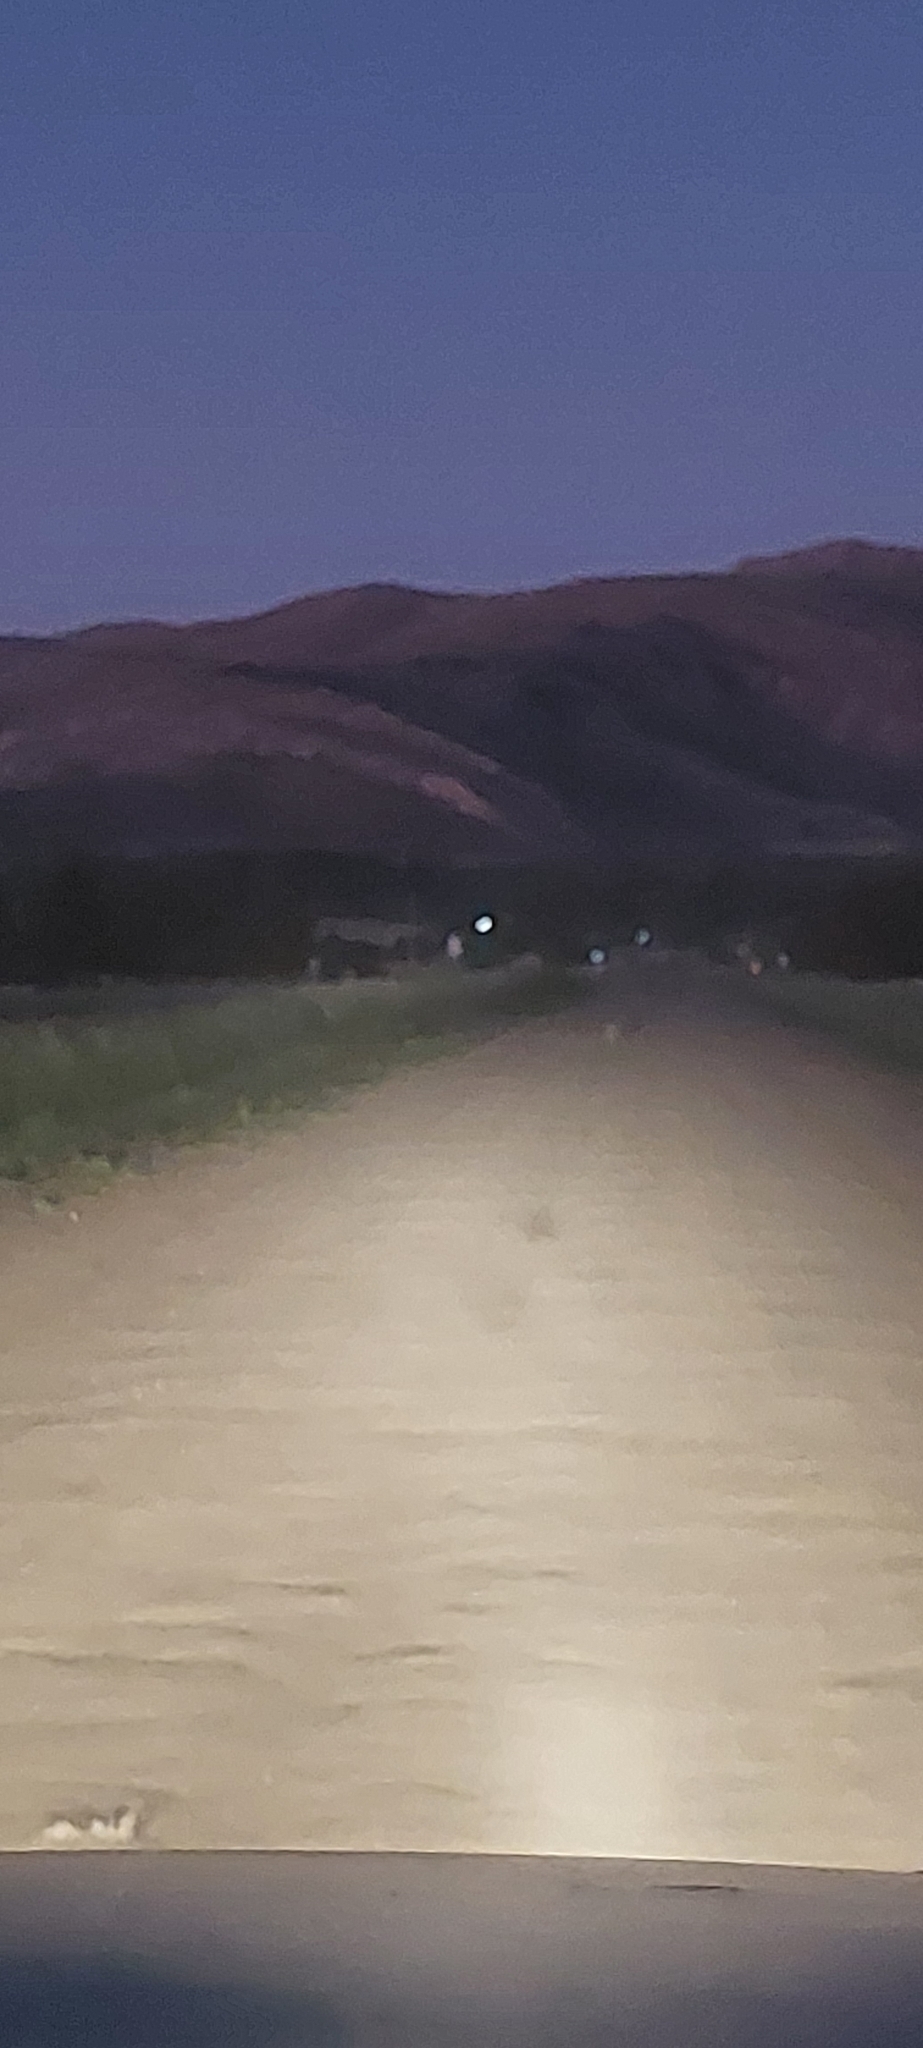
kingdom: Animalia
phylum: Chordata
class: Mammalia
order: Lagomorpha
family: Leporidae
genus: Lepus
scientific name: Lepus europaeus
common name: European hare
